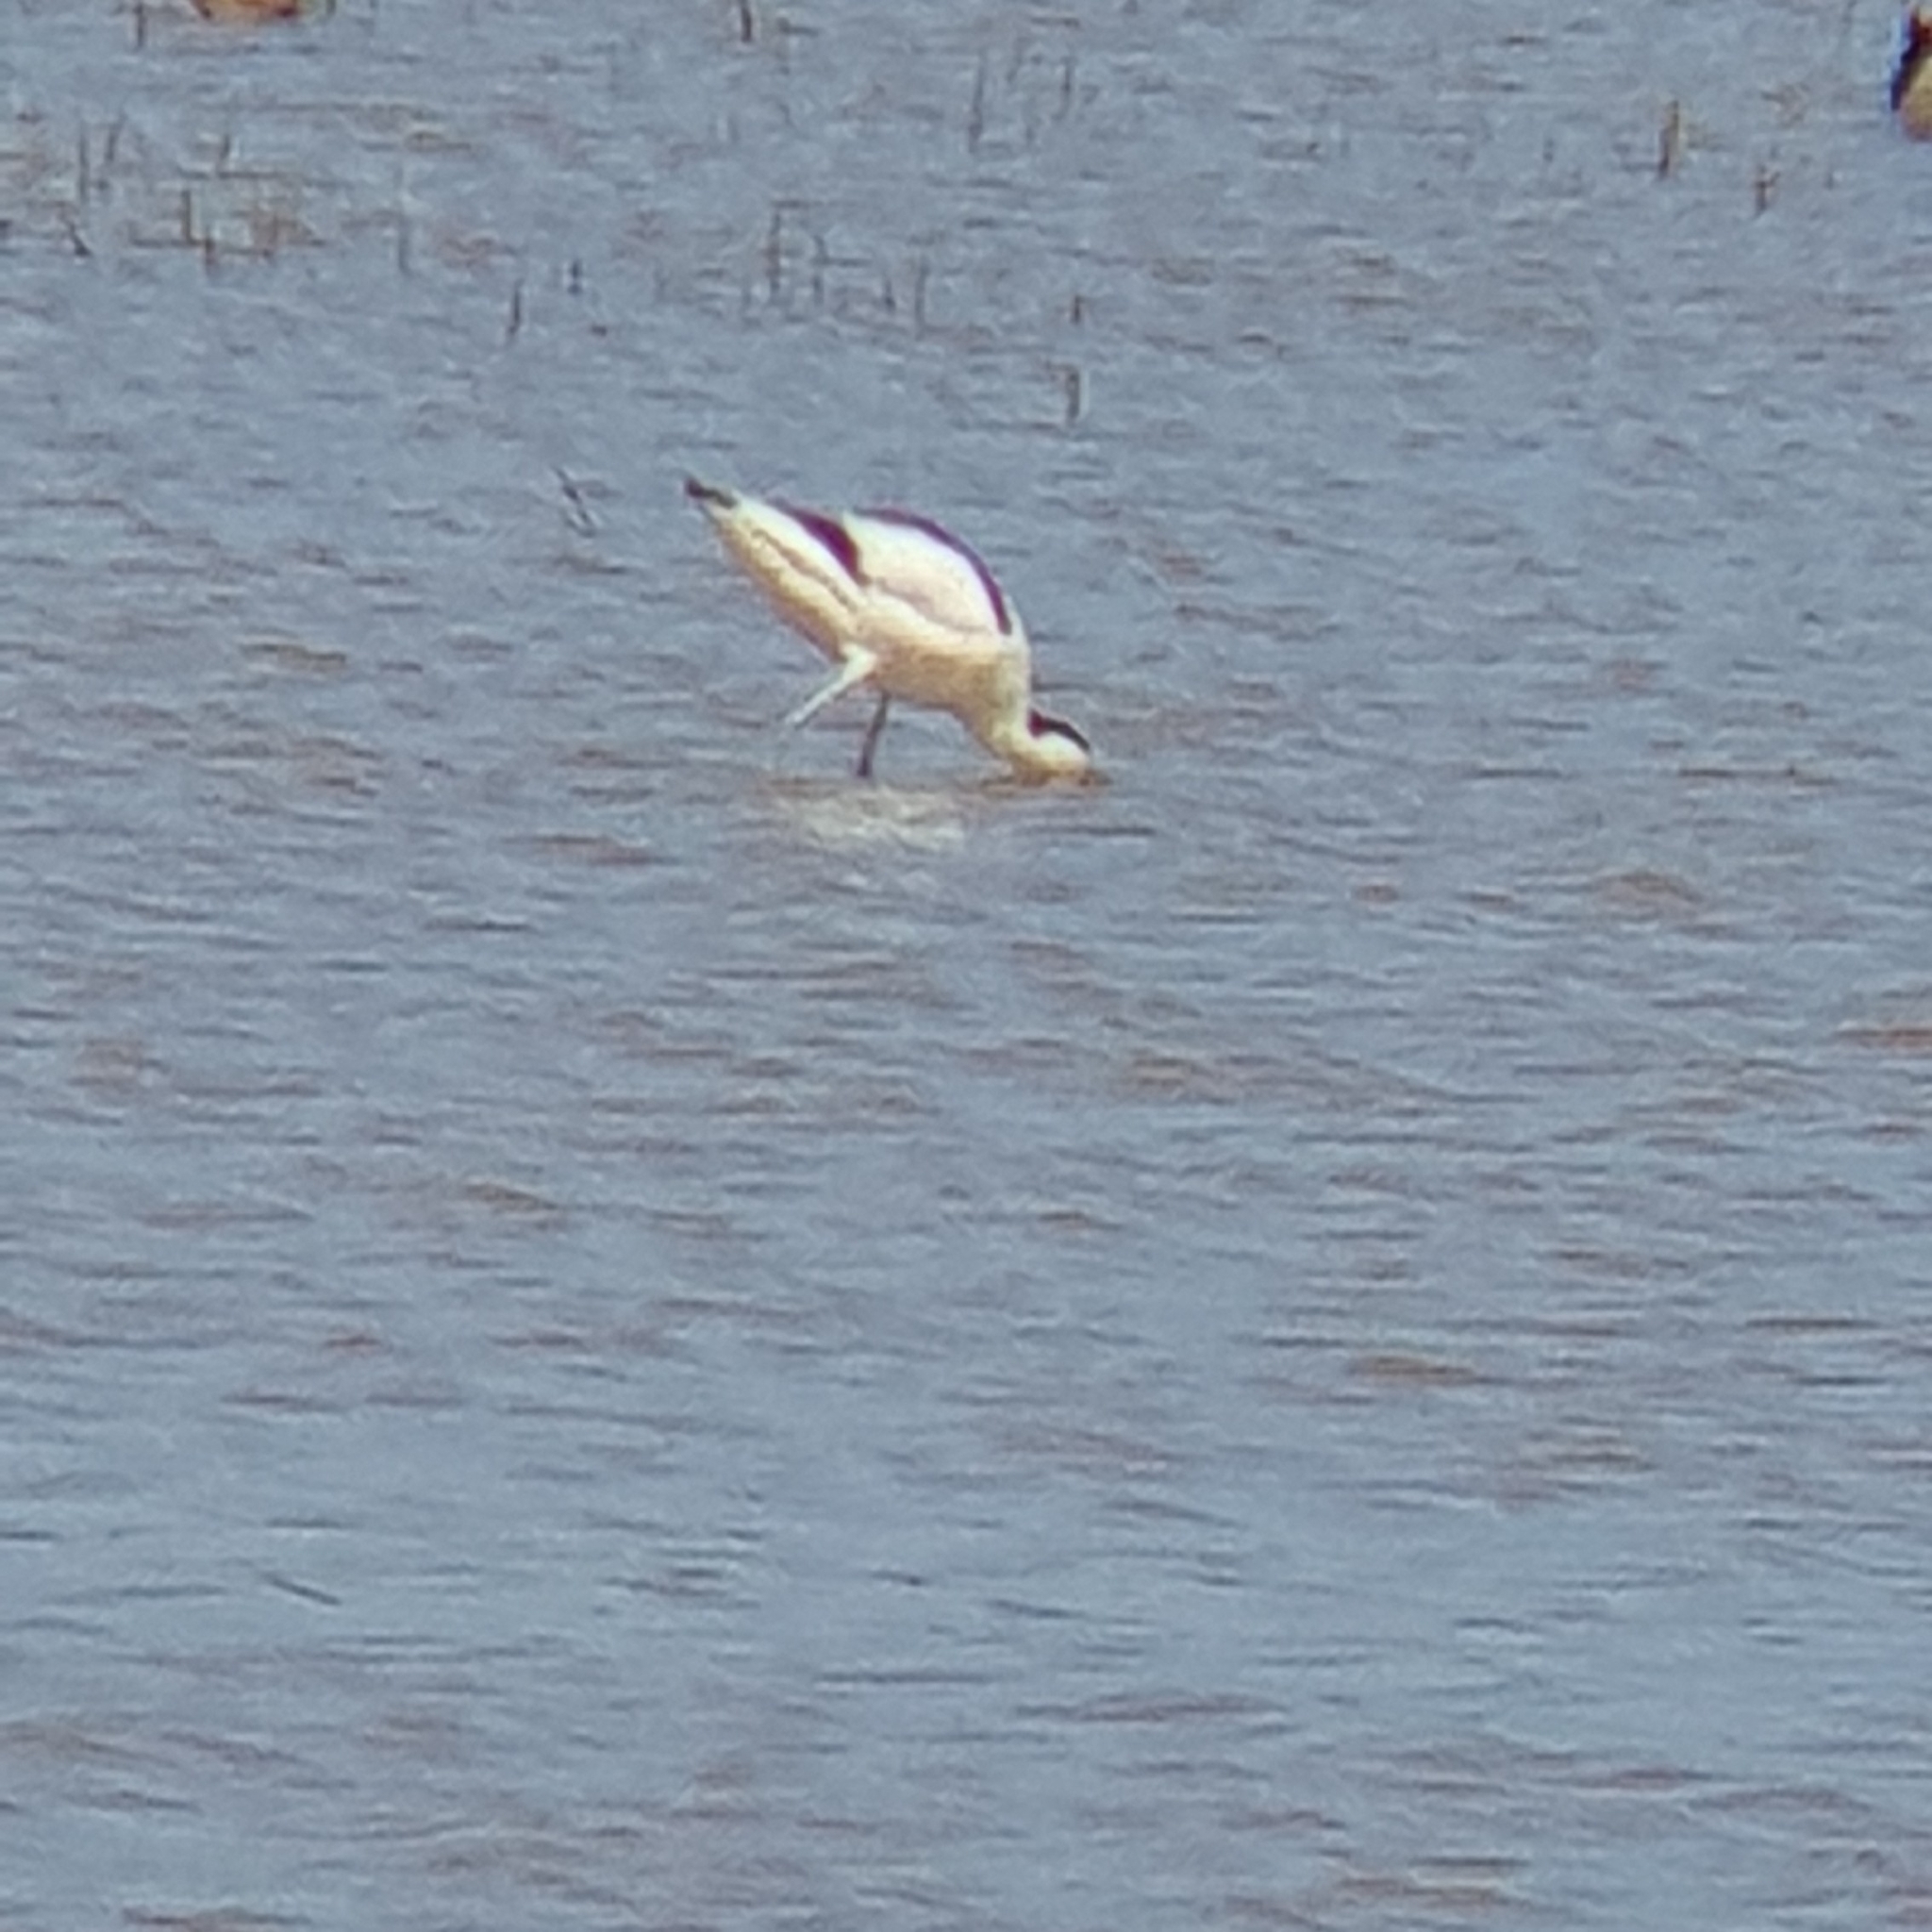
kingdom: Animalia
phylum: Chordata
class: Aves
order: Charadriiformes
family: Recurvirostridae
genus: Recurvirostra
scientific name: Recurvirostra avosetta
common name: Pied avocet
